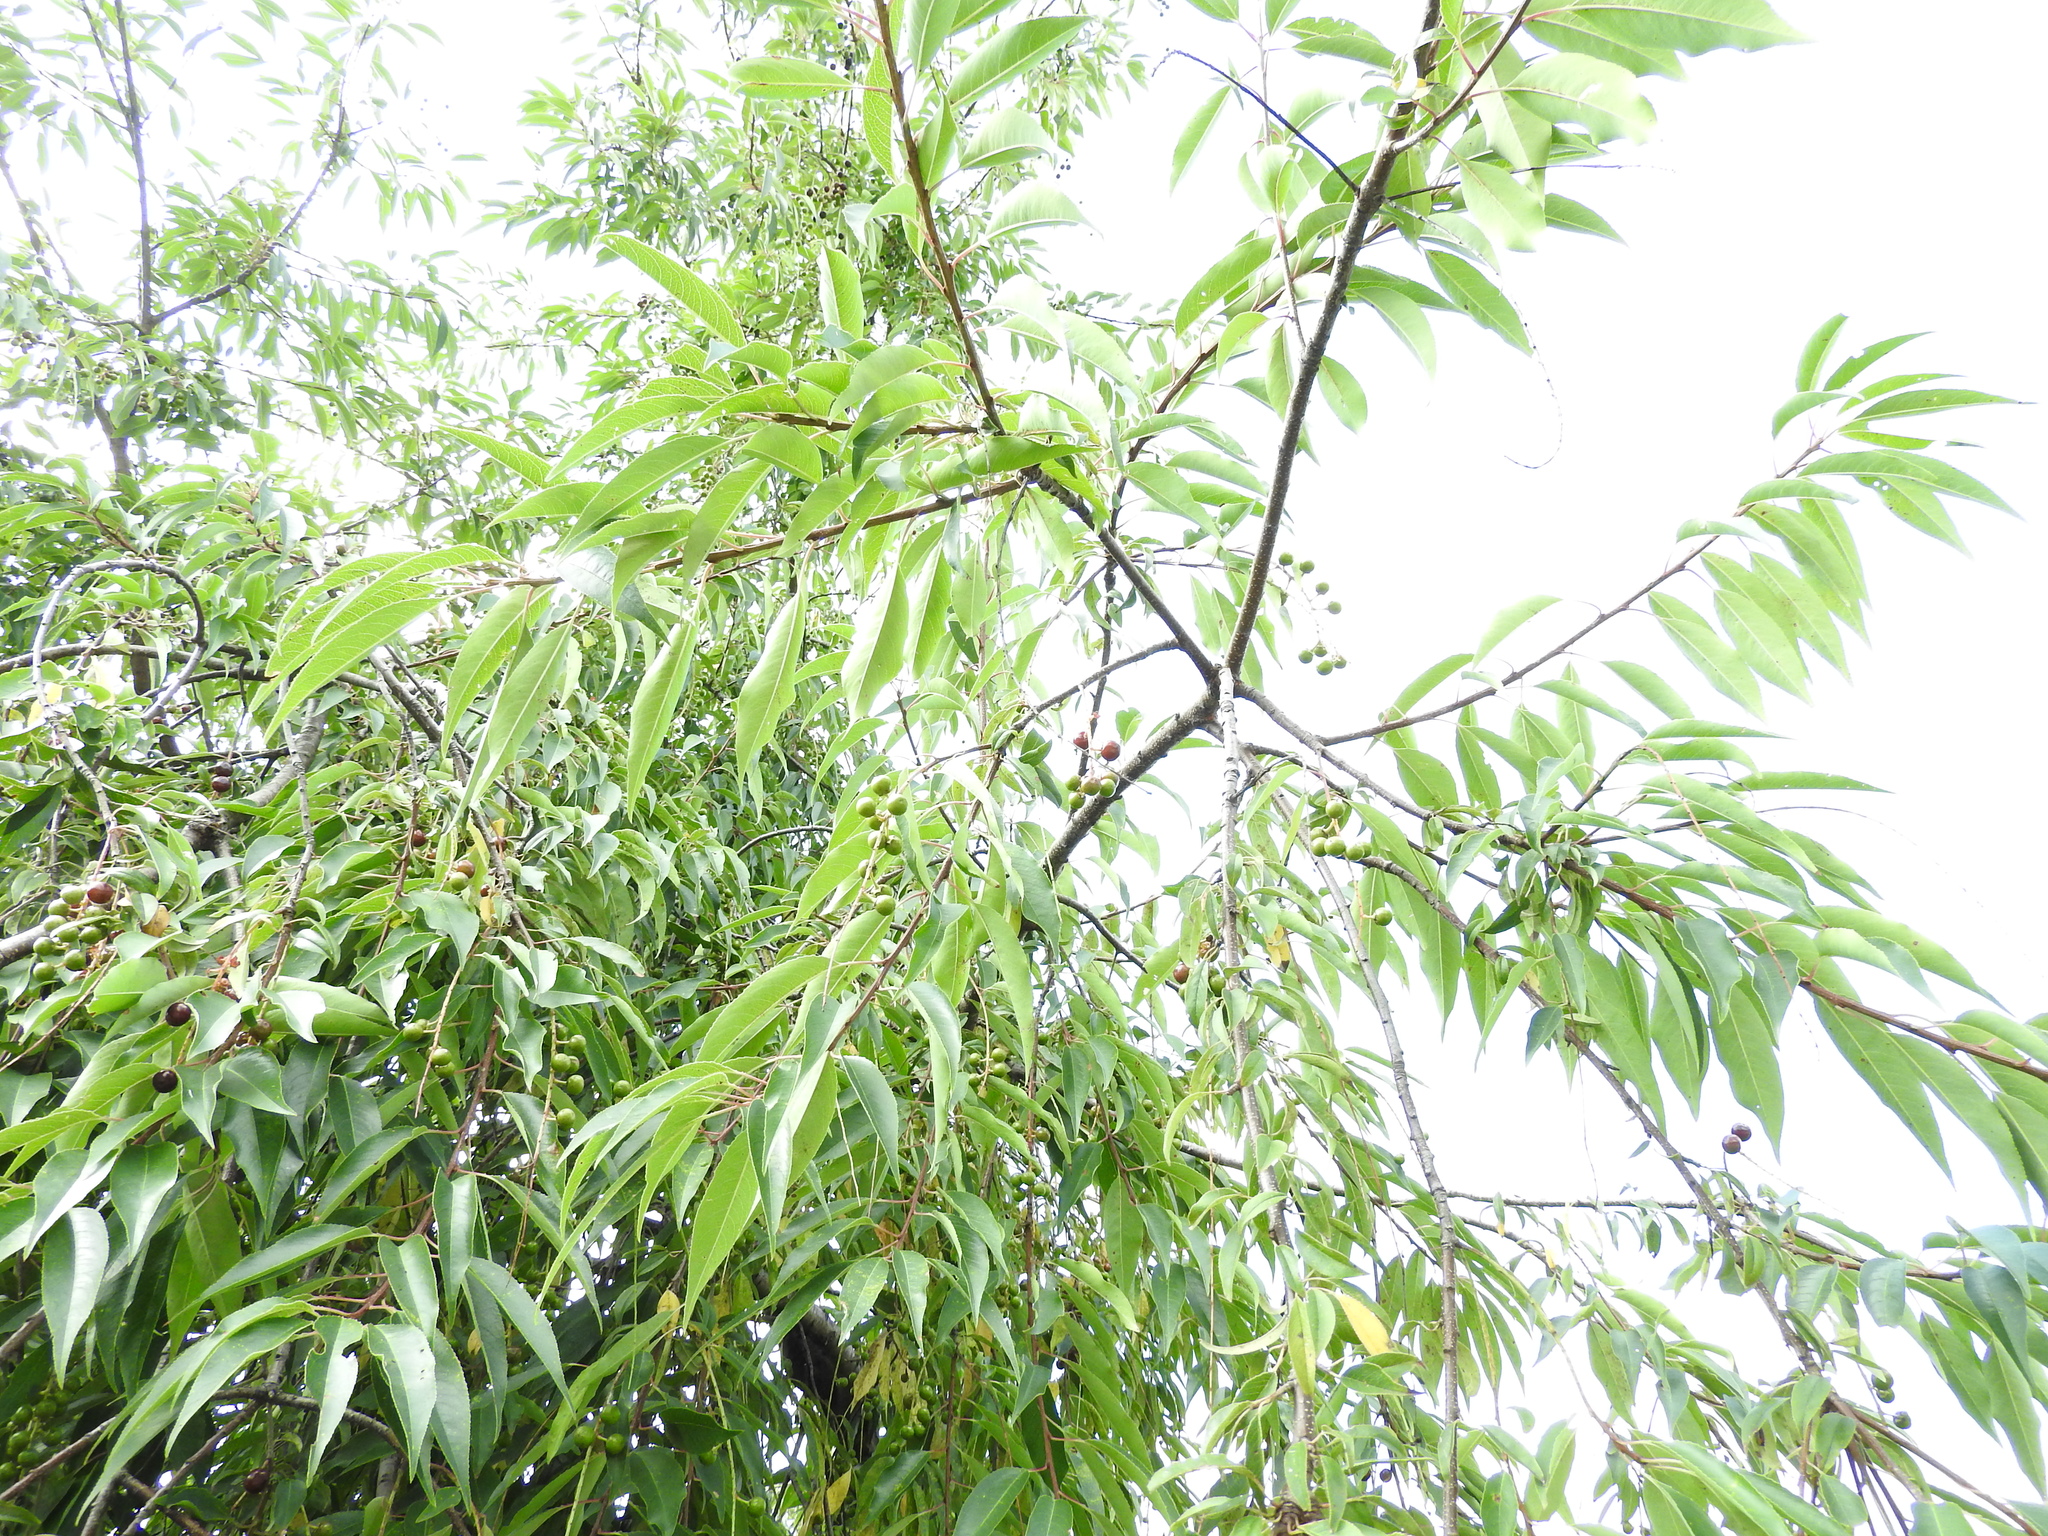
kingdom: Plantae
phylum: Tracheophyta
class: Magnoliopsida
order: Rosales
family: Rosaceae
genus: Prunus
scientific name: Prunus serotina
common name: Black cherry
